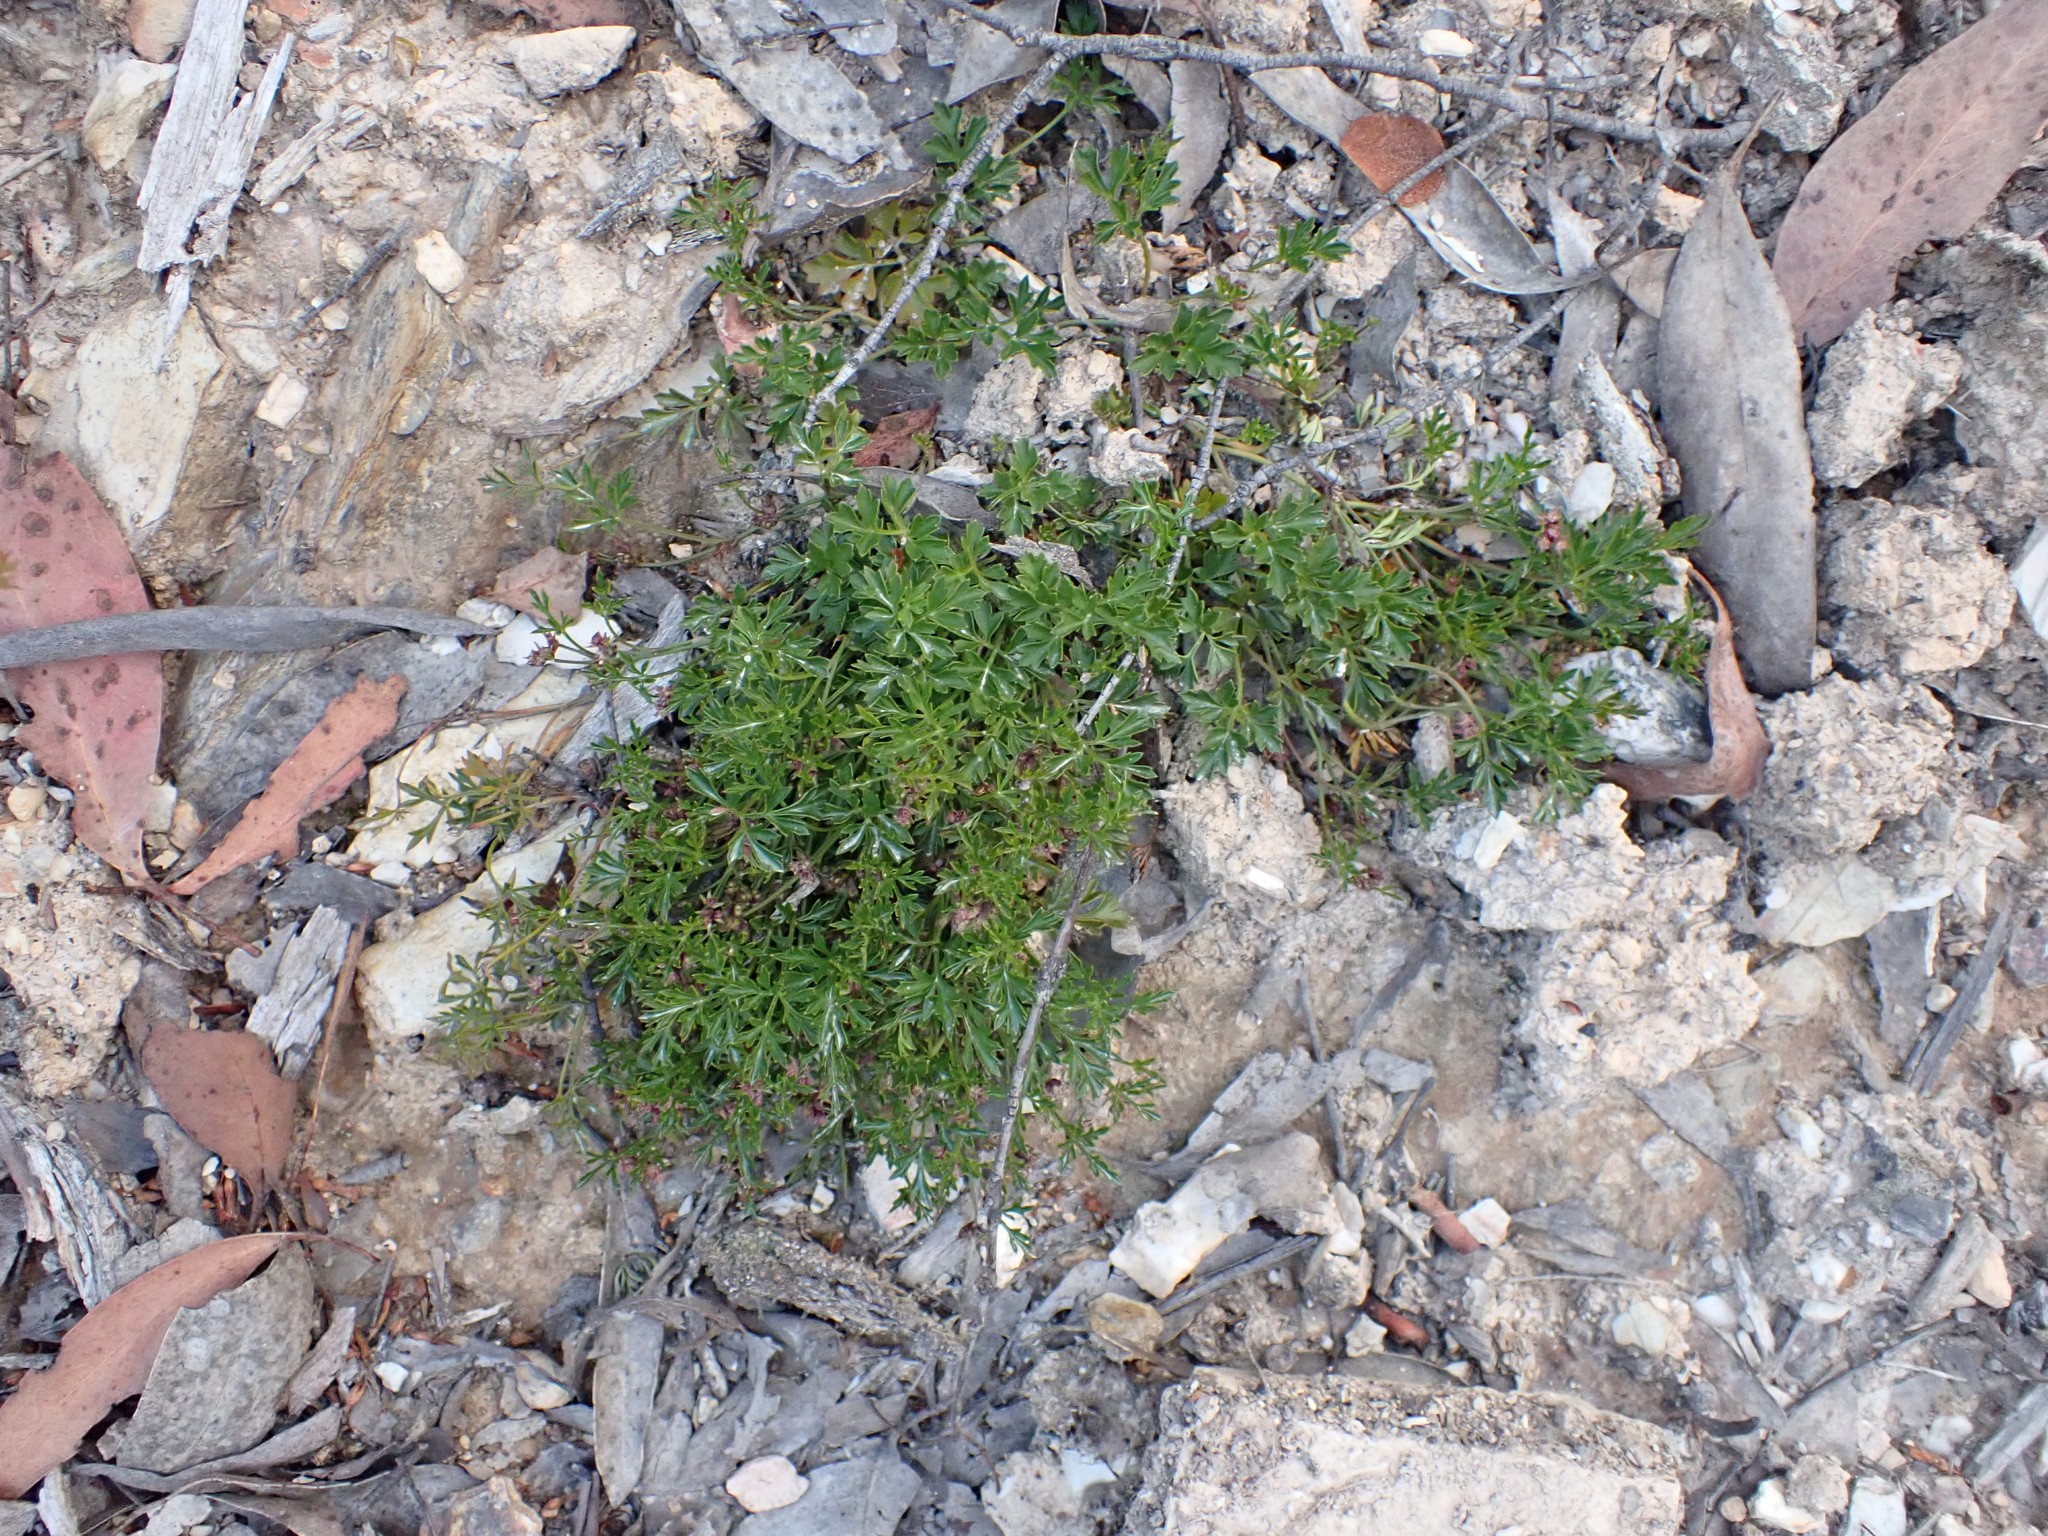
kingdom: Plantae
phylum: Tracheophyta
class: Magnoliopsida
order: Apiales
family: Apiaceae
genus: Xanthosia
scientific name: Xanthosia dissecta
